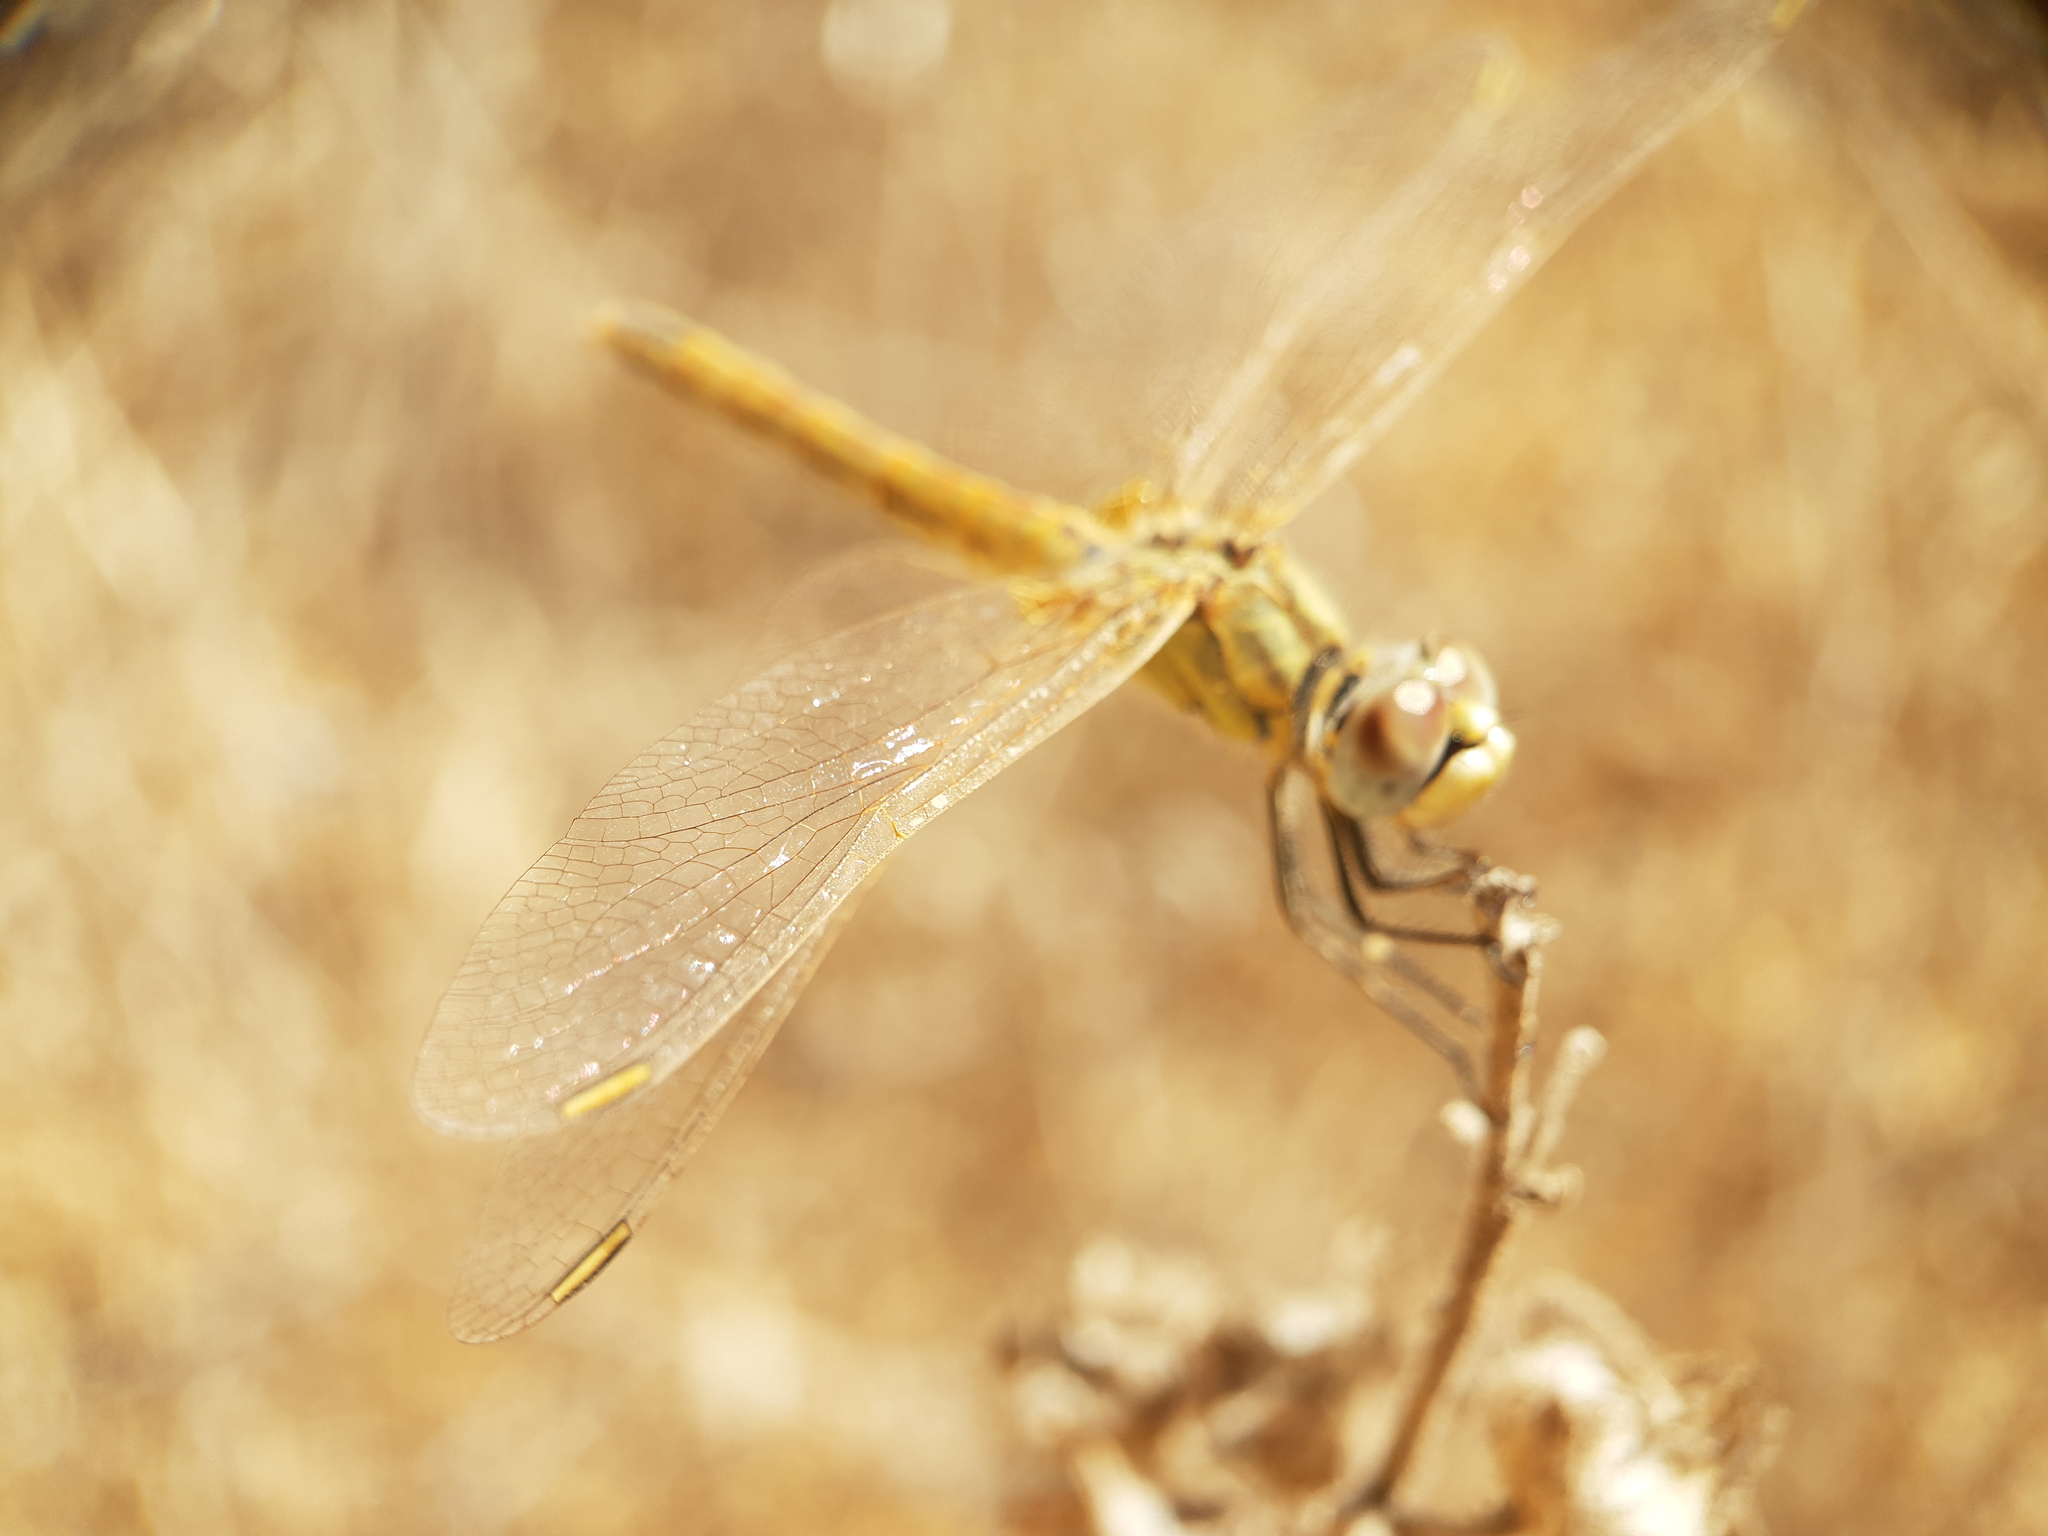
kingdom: Animalia
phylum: Arthropoda
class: Insecta
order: Odonata
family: Libellulidae
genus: Sympetrum
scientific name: Sympetrum fonscolombii
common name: Red-veined darter
